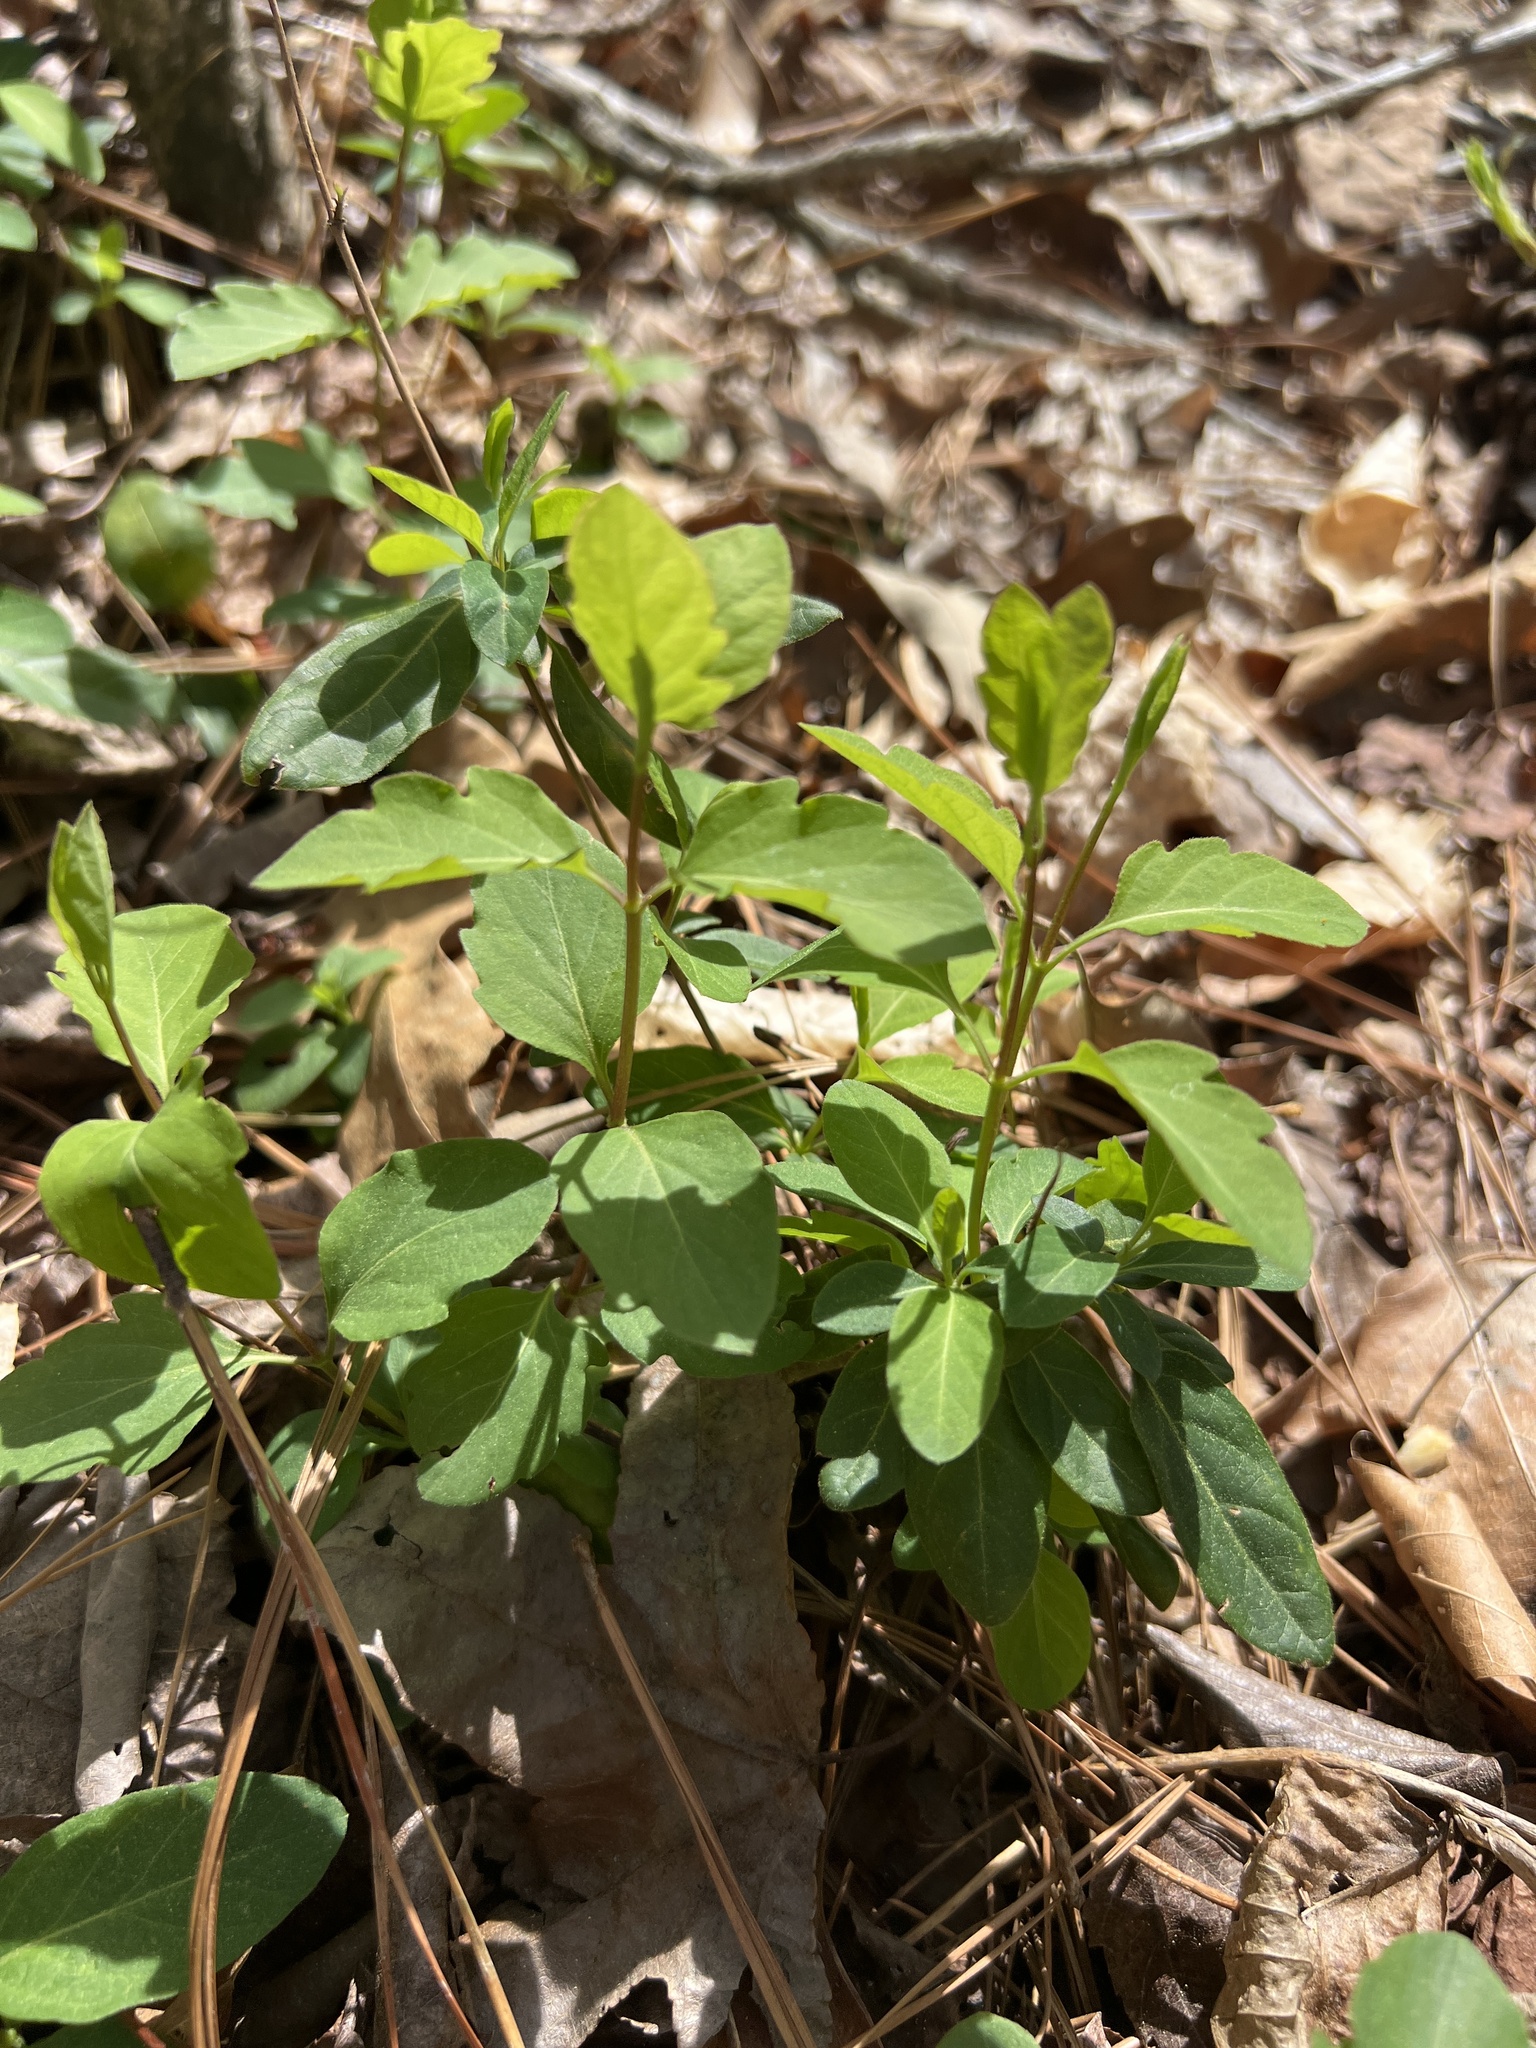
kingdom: Plantae
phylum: Tracheophyta
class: Magnoliopsida
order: Dipsacales
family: Caprifoliaceae
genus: Lonicera
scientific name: Lonicera japonica
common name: Japanese honeysuckle
